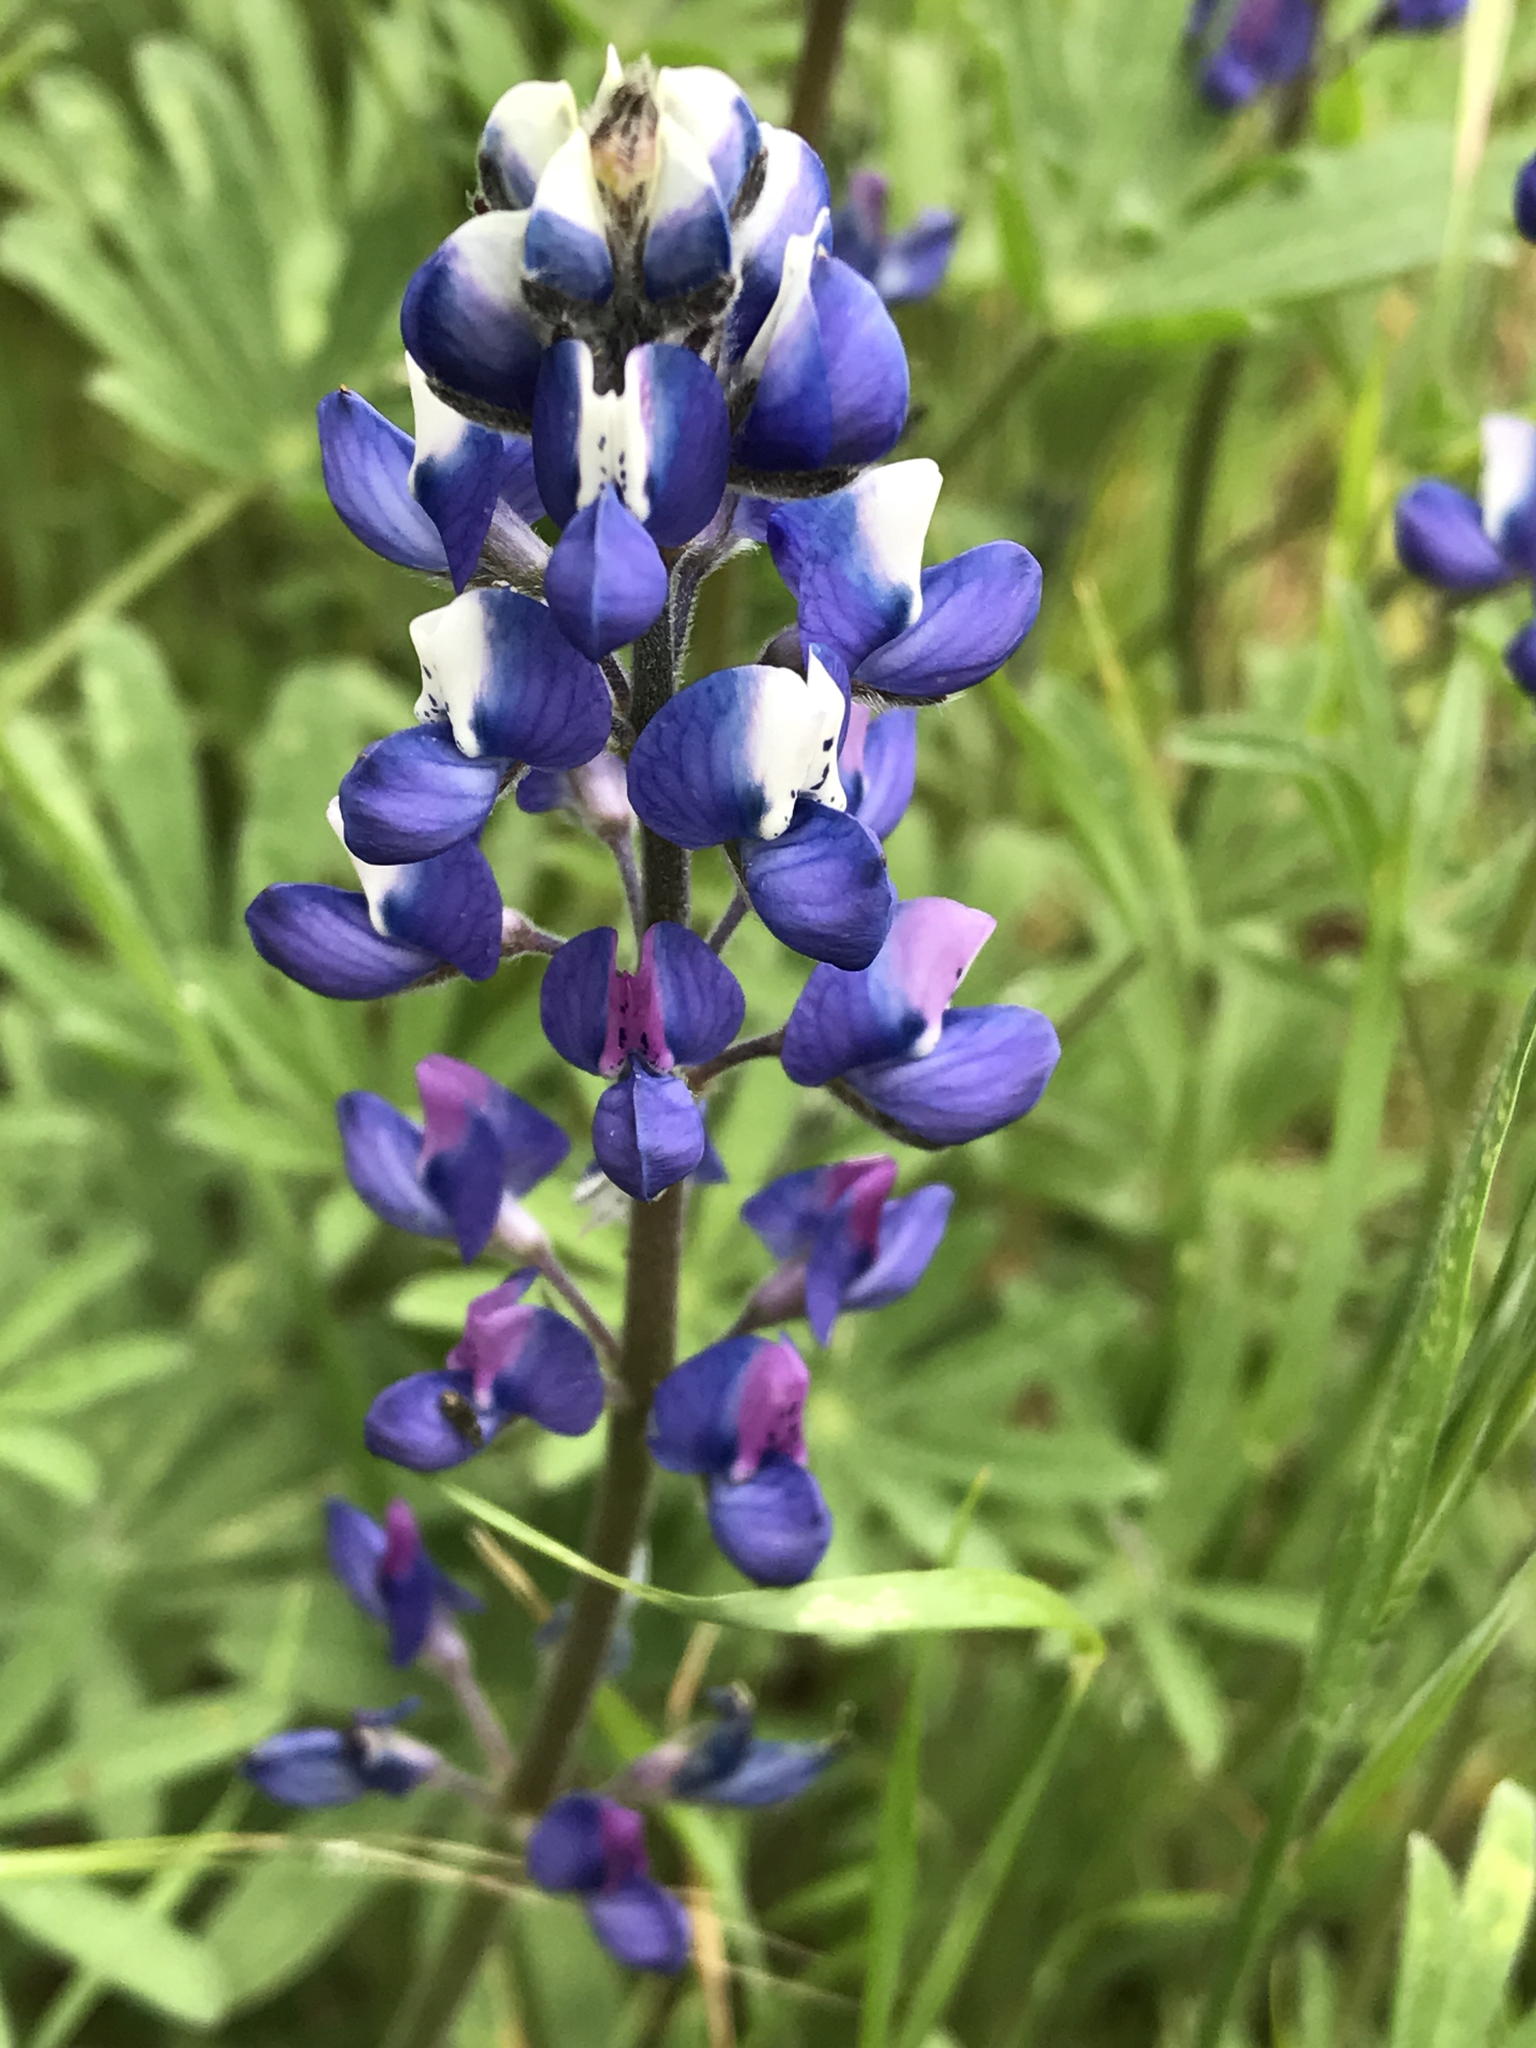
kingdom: Plantae
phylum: Tracheophyta
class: Magnoliopsida
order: Fabales
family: Fabaceae
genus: Lupinus
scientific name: Lupinus nanus
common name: Orean blue lupin
